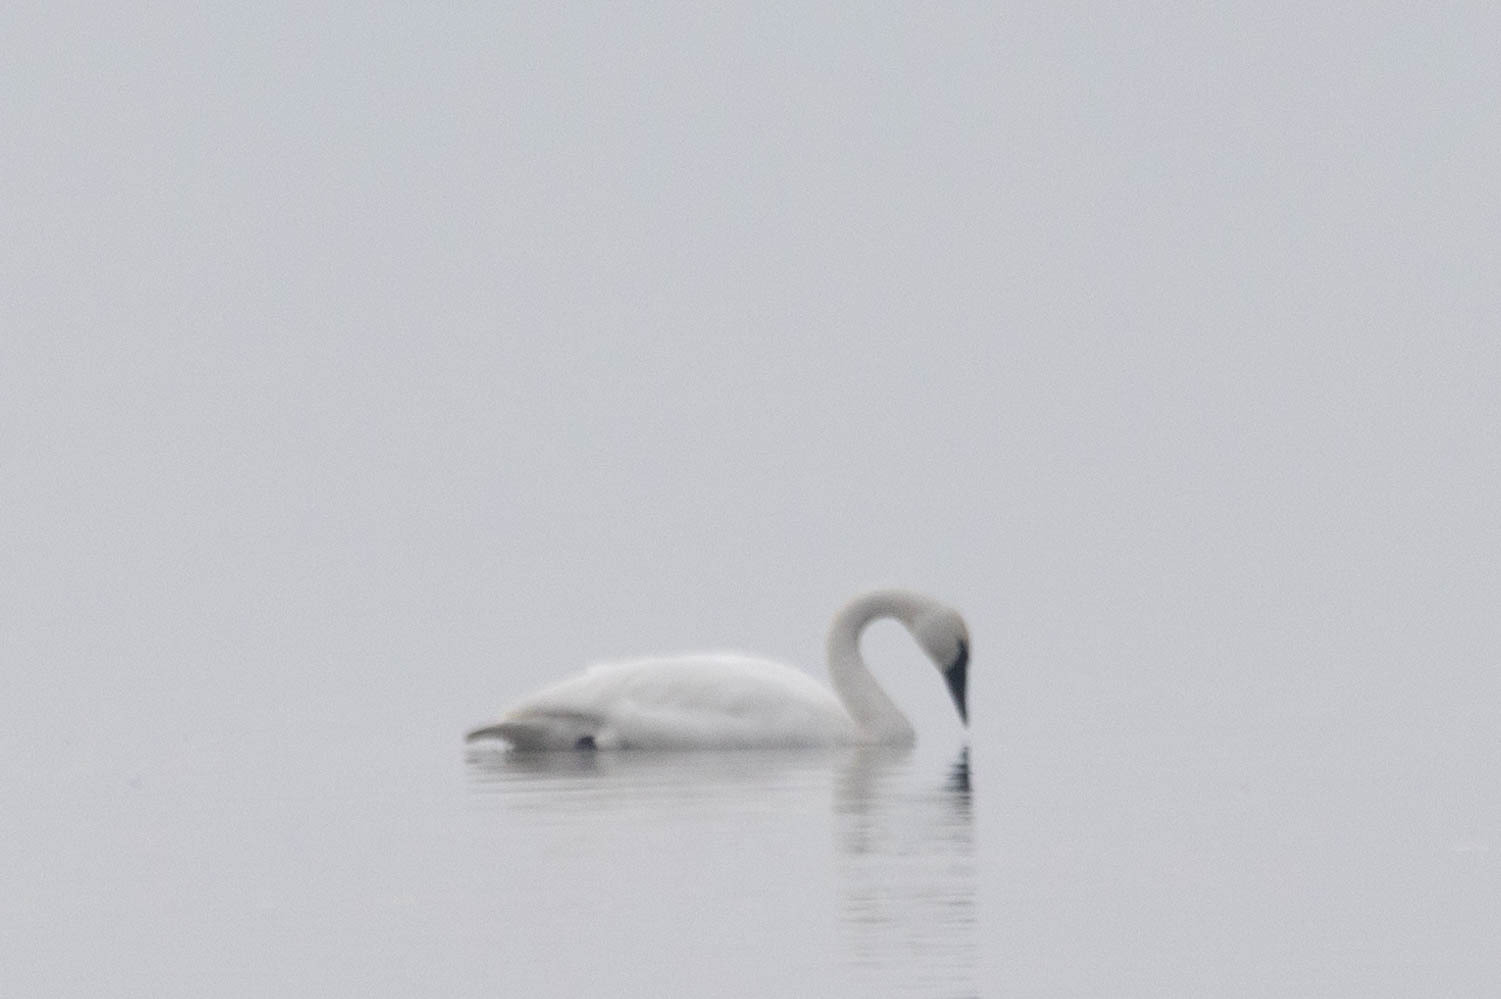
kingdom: Animalia
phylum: Chordata
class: Aves
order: Anseriformes
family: Anatidae
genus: Cygnus
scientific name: Cygnus buccinator
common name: Trumpeter swan
